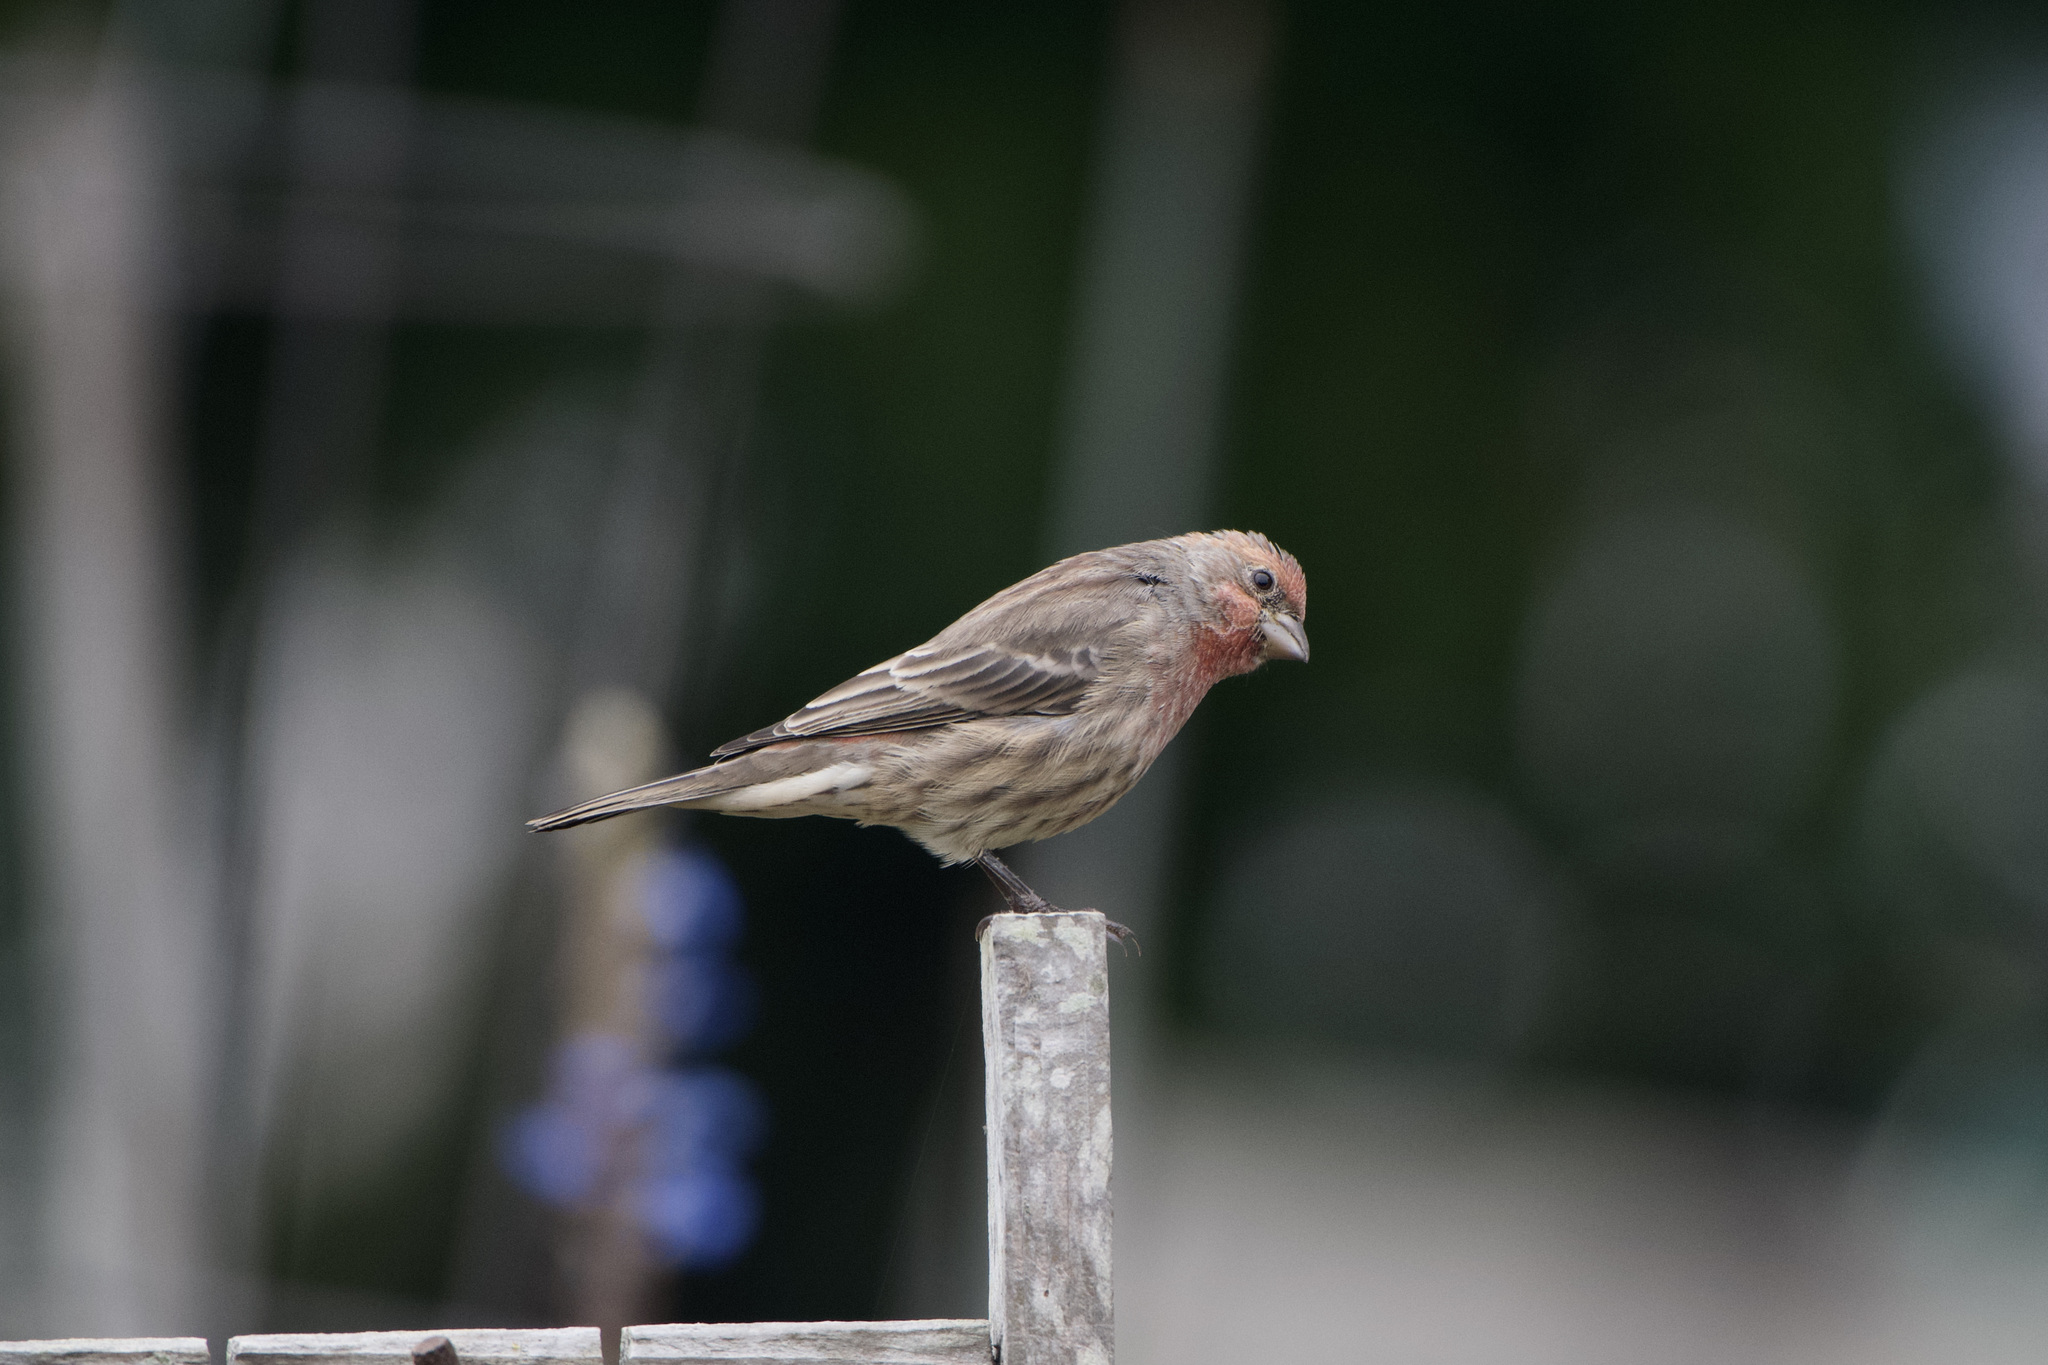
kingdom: Animalia
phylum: Chordata
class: Aves
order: Passeriformes
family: Fringillidae
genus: Haemorhous
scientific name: Haemorhous mexicanus
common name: House finch
